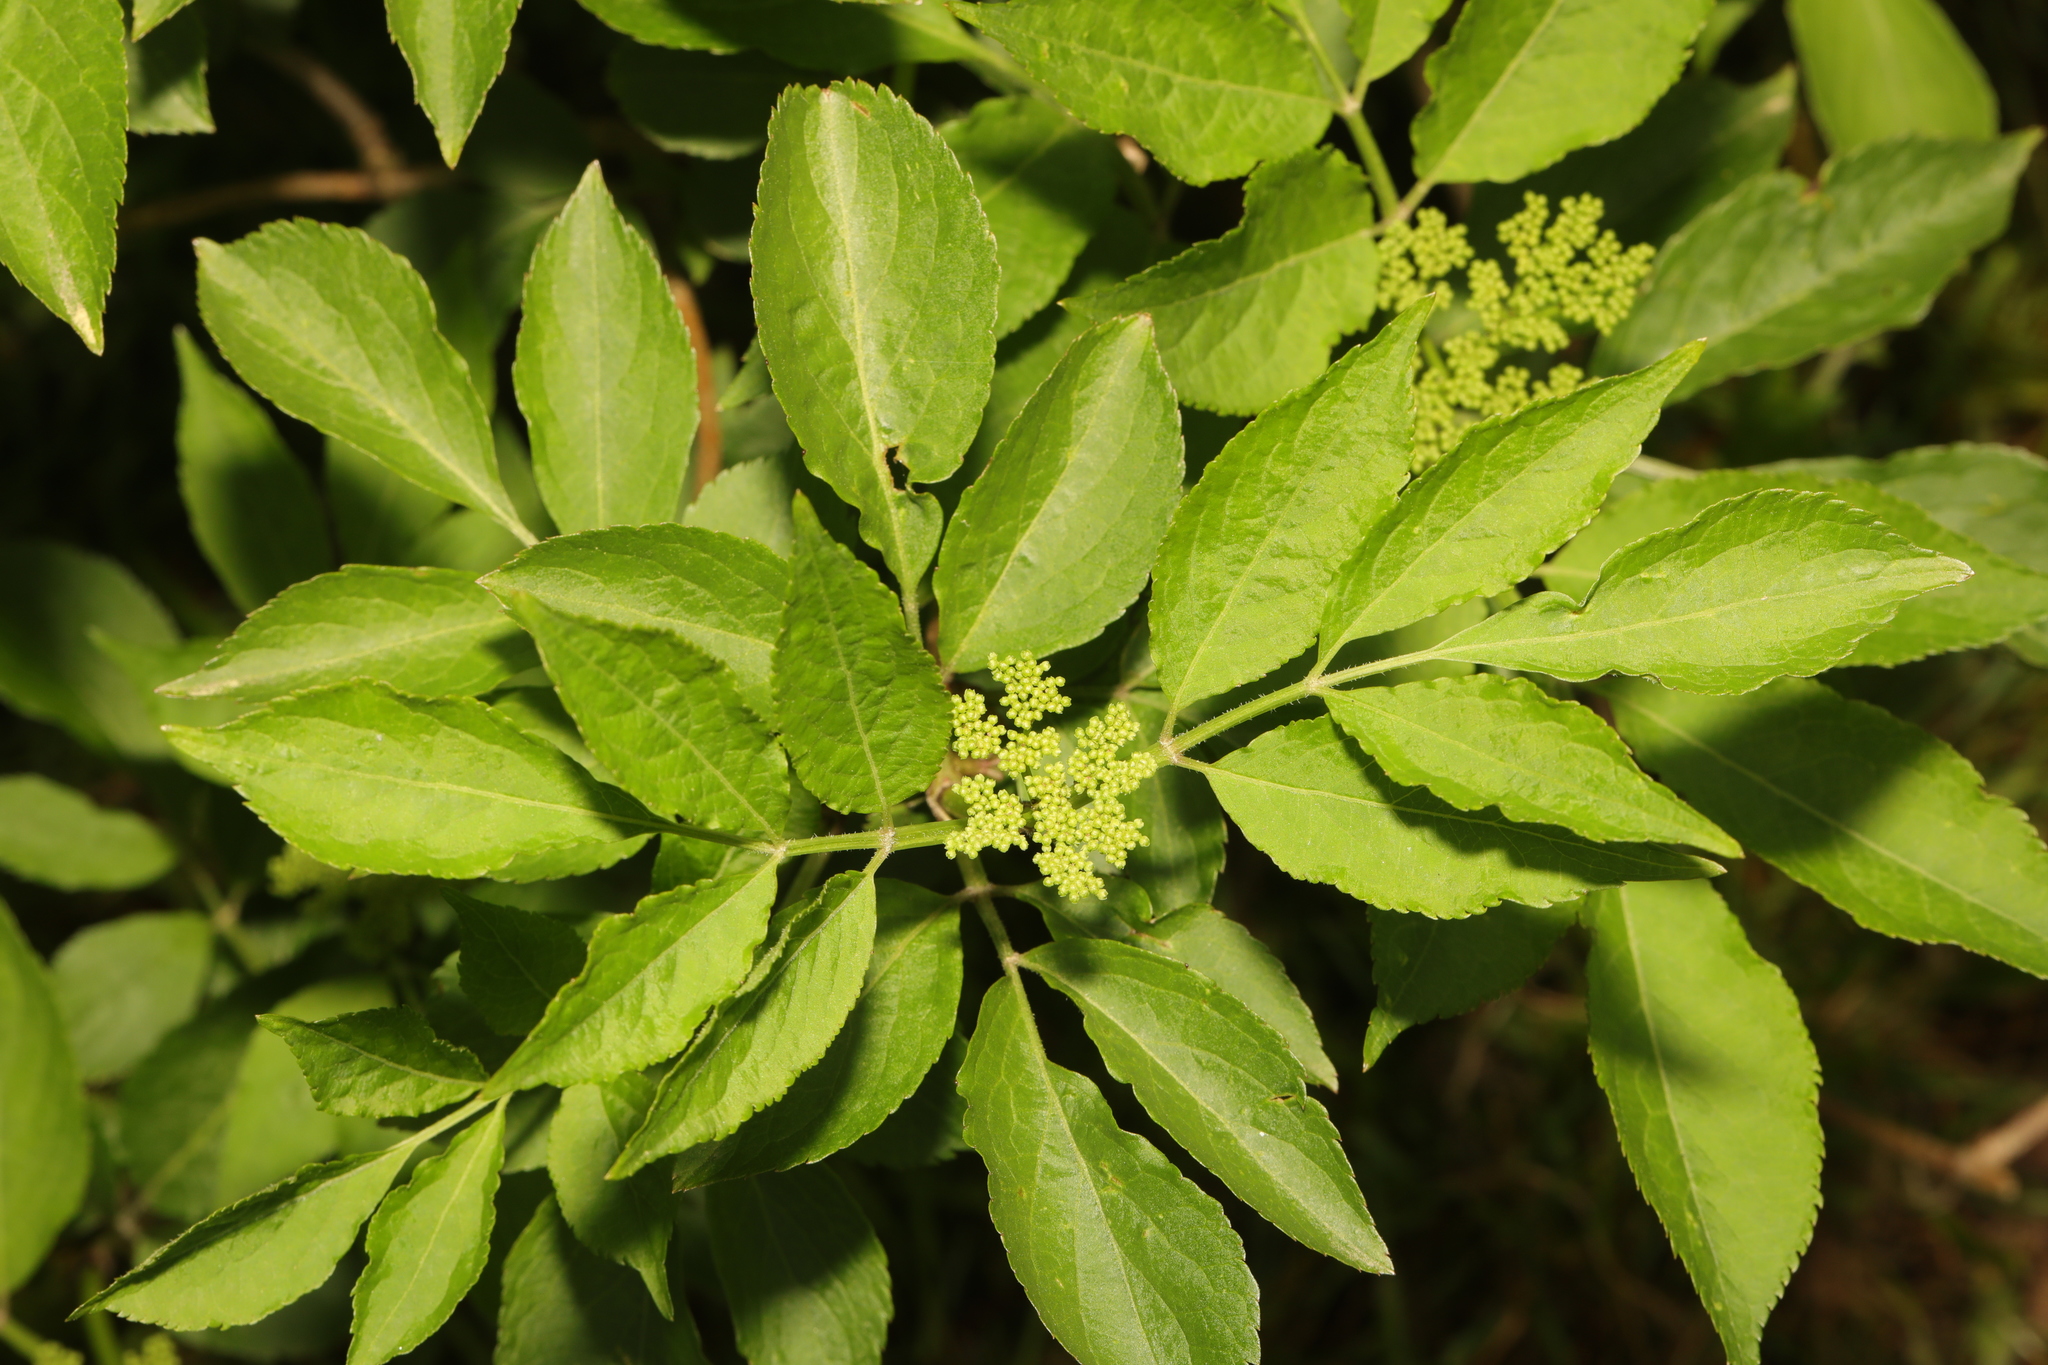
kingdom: Plantae
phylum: Tracheophyta
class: Magnoliopsida
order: Dipsacales
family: Viburnaceae
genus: Sambucus
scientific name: Sambucus nigra
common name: Elder
